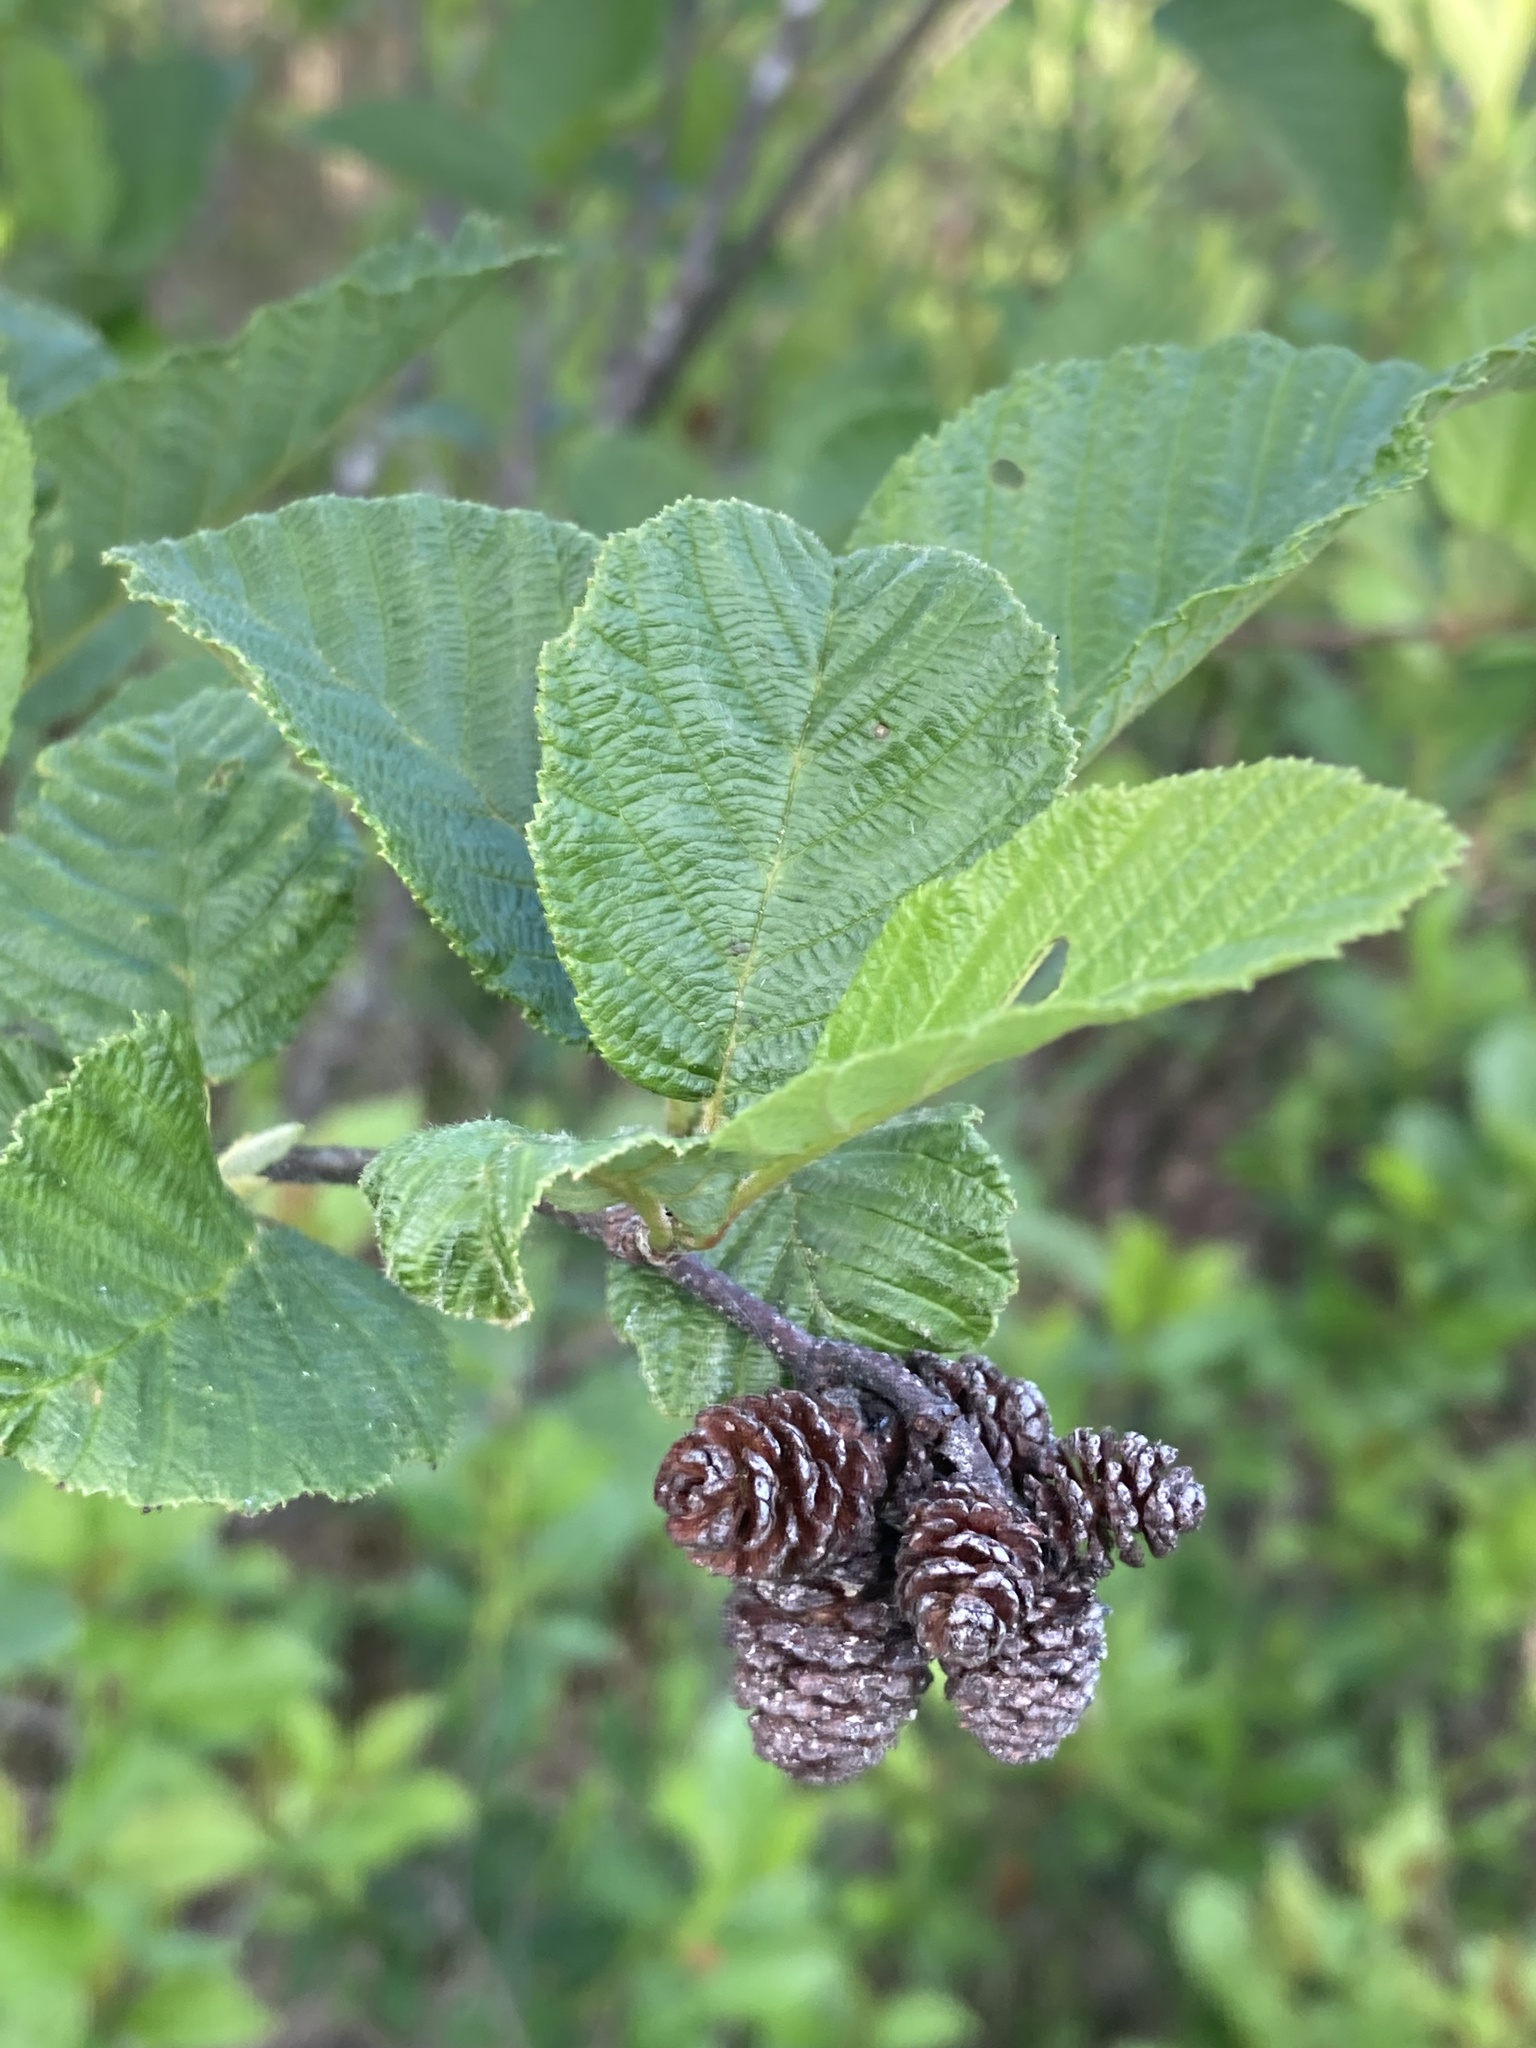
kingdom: Plantae
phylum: Tracheophyta
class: Magnoliopsida
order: Fagales
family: Betulaceae
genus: Alnus
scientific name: Alnus incana
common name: Grey alder
